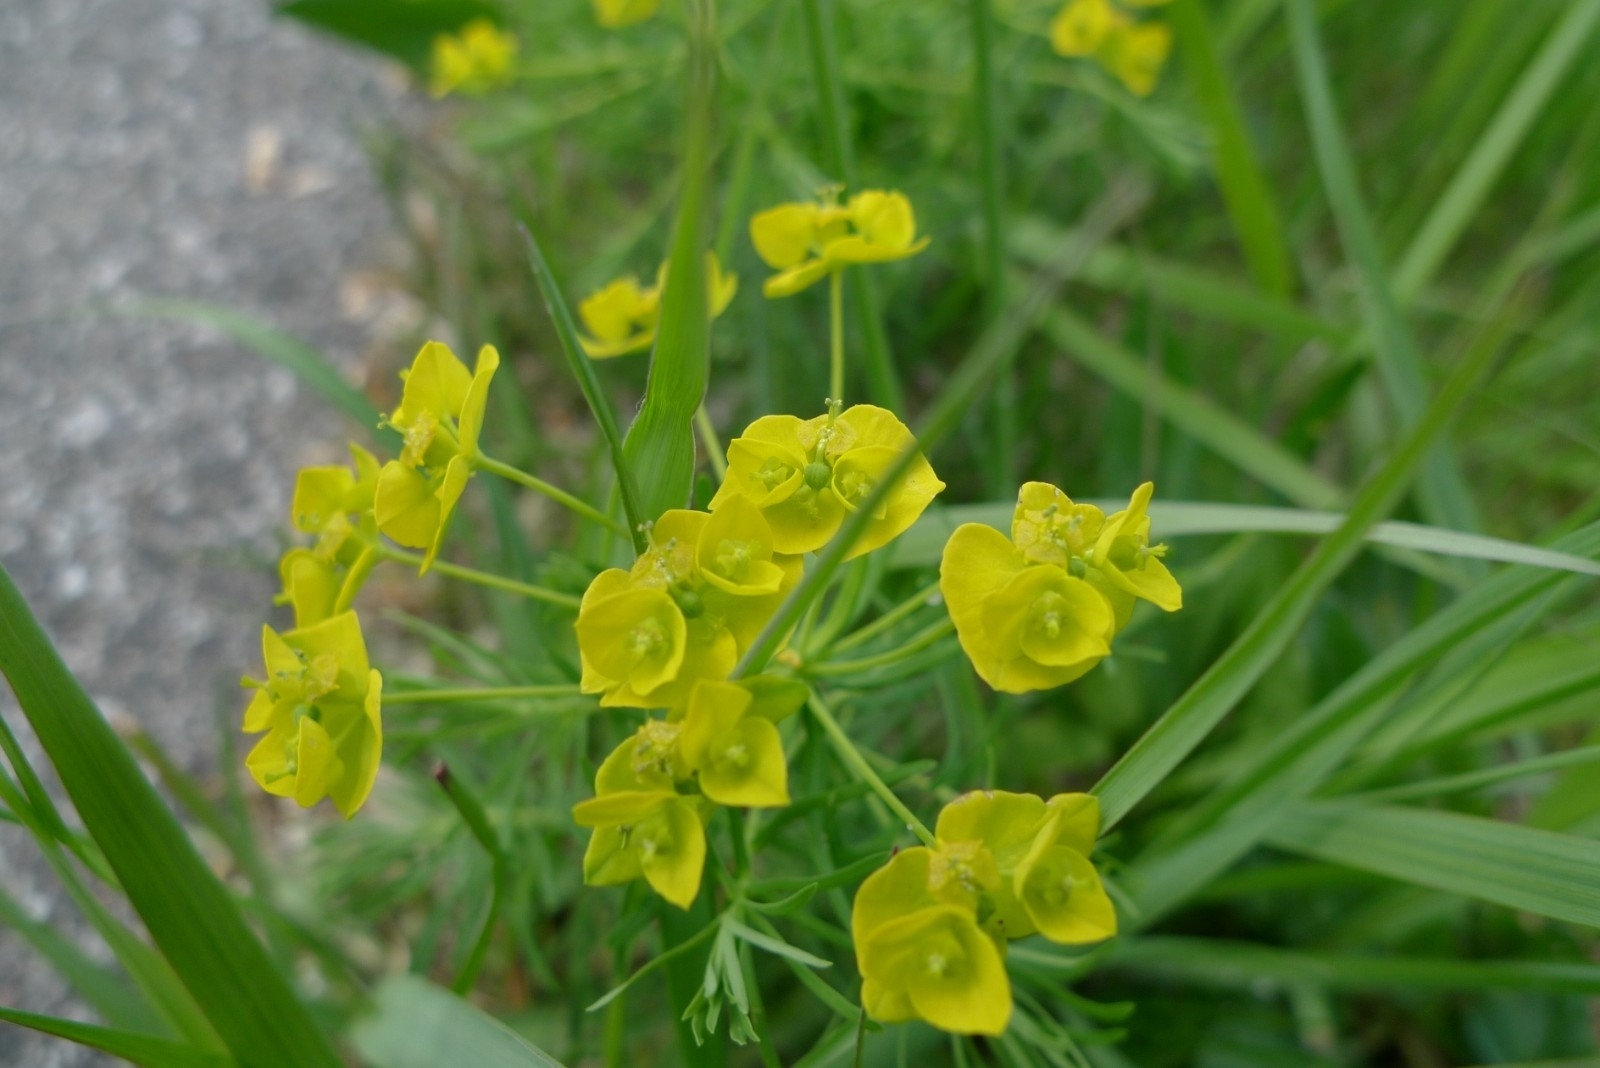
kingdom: Plantae
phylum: Tracheophyta
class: Magnoliopsida
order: Malpighiales
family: Euphorbiaceae
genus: Euphorbia
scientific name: Euphorbia cyparissias
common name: Cypress spurge
